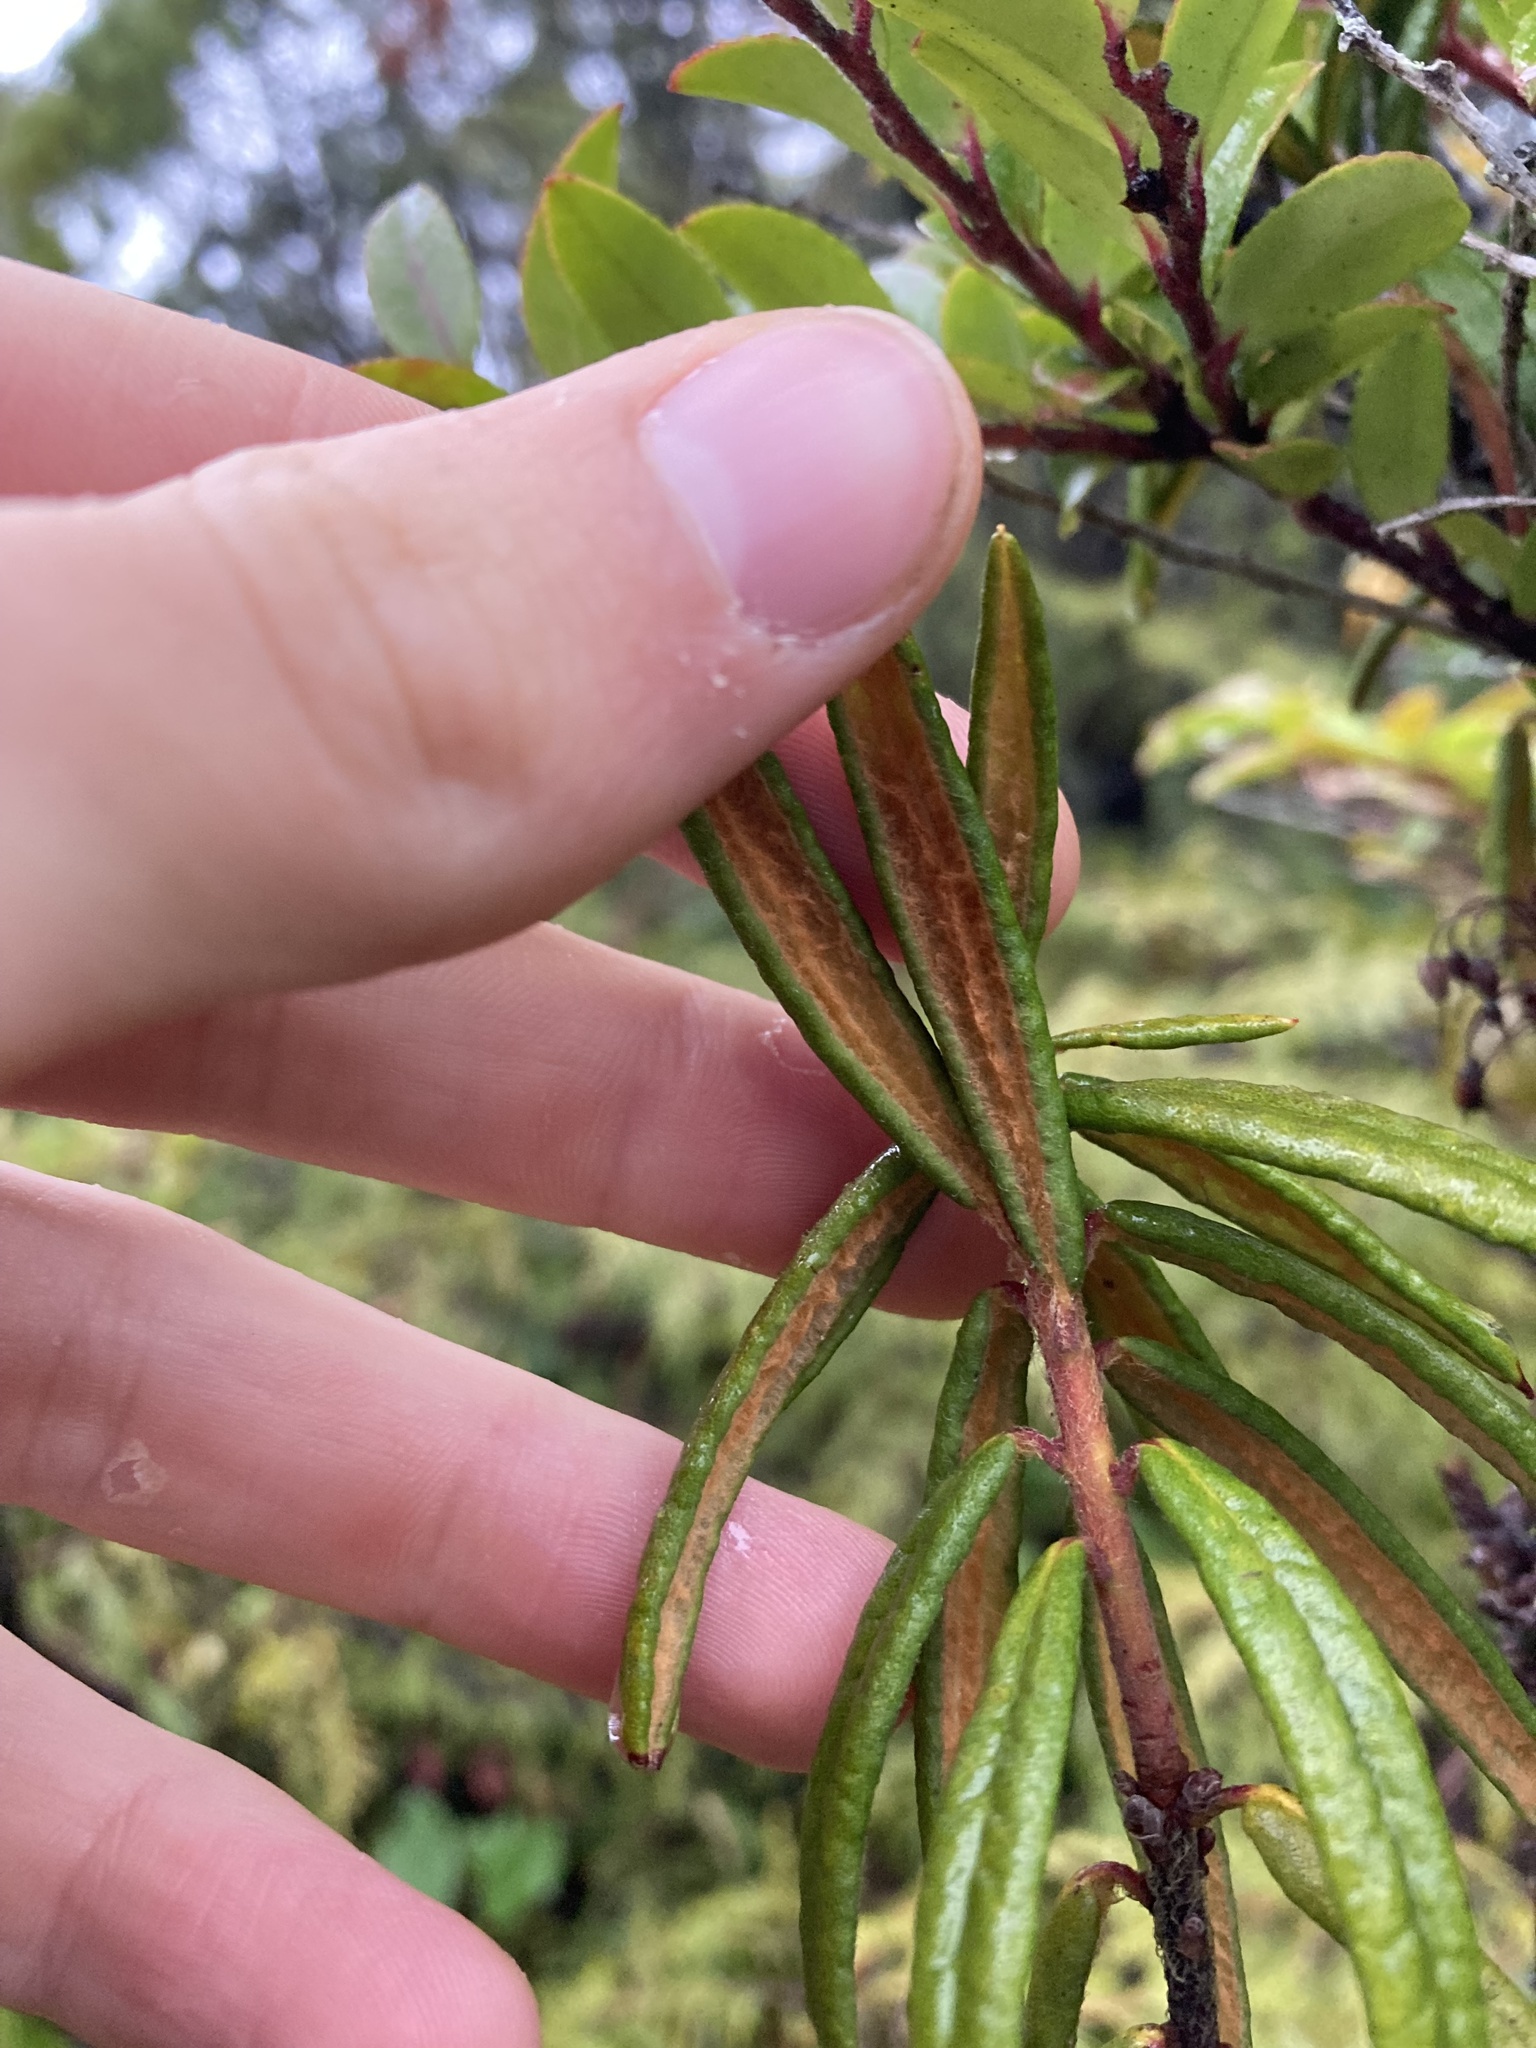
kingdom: Plantae
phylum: Tracheophyta
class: Magnoliopsida
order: Ericales
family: Ericaceae
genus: Rhododendron
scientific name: Rhododendron groenlandicum
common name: Bog labrador tea
